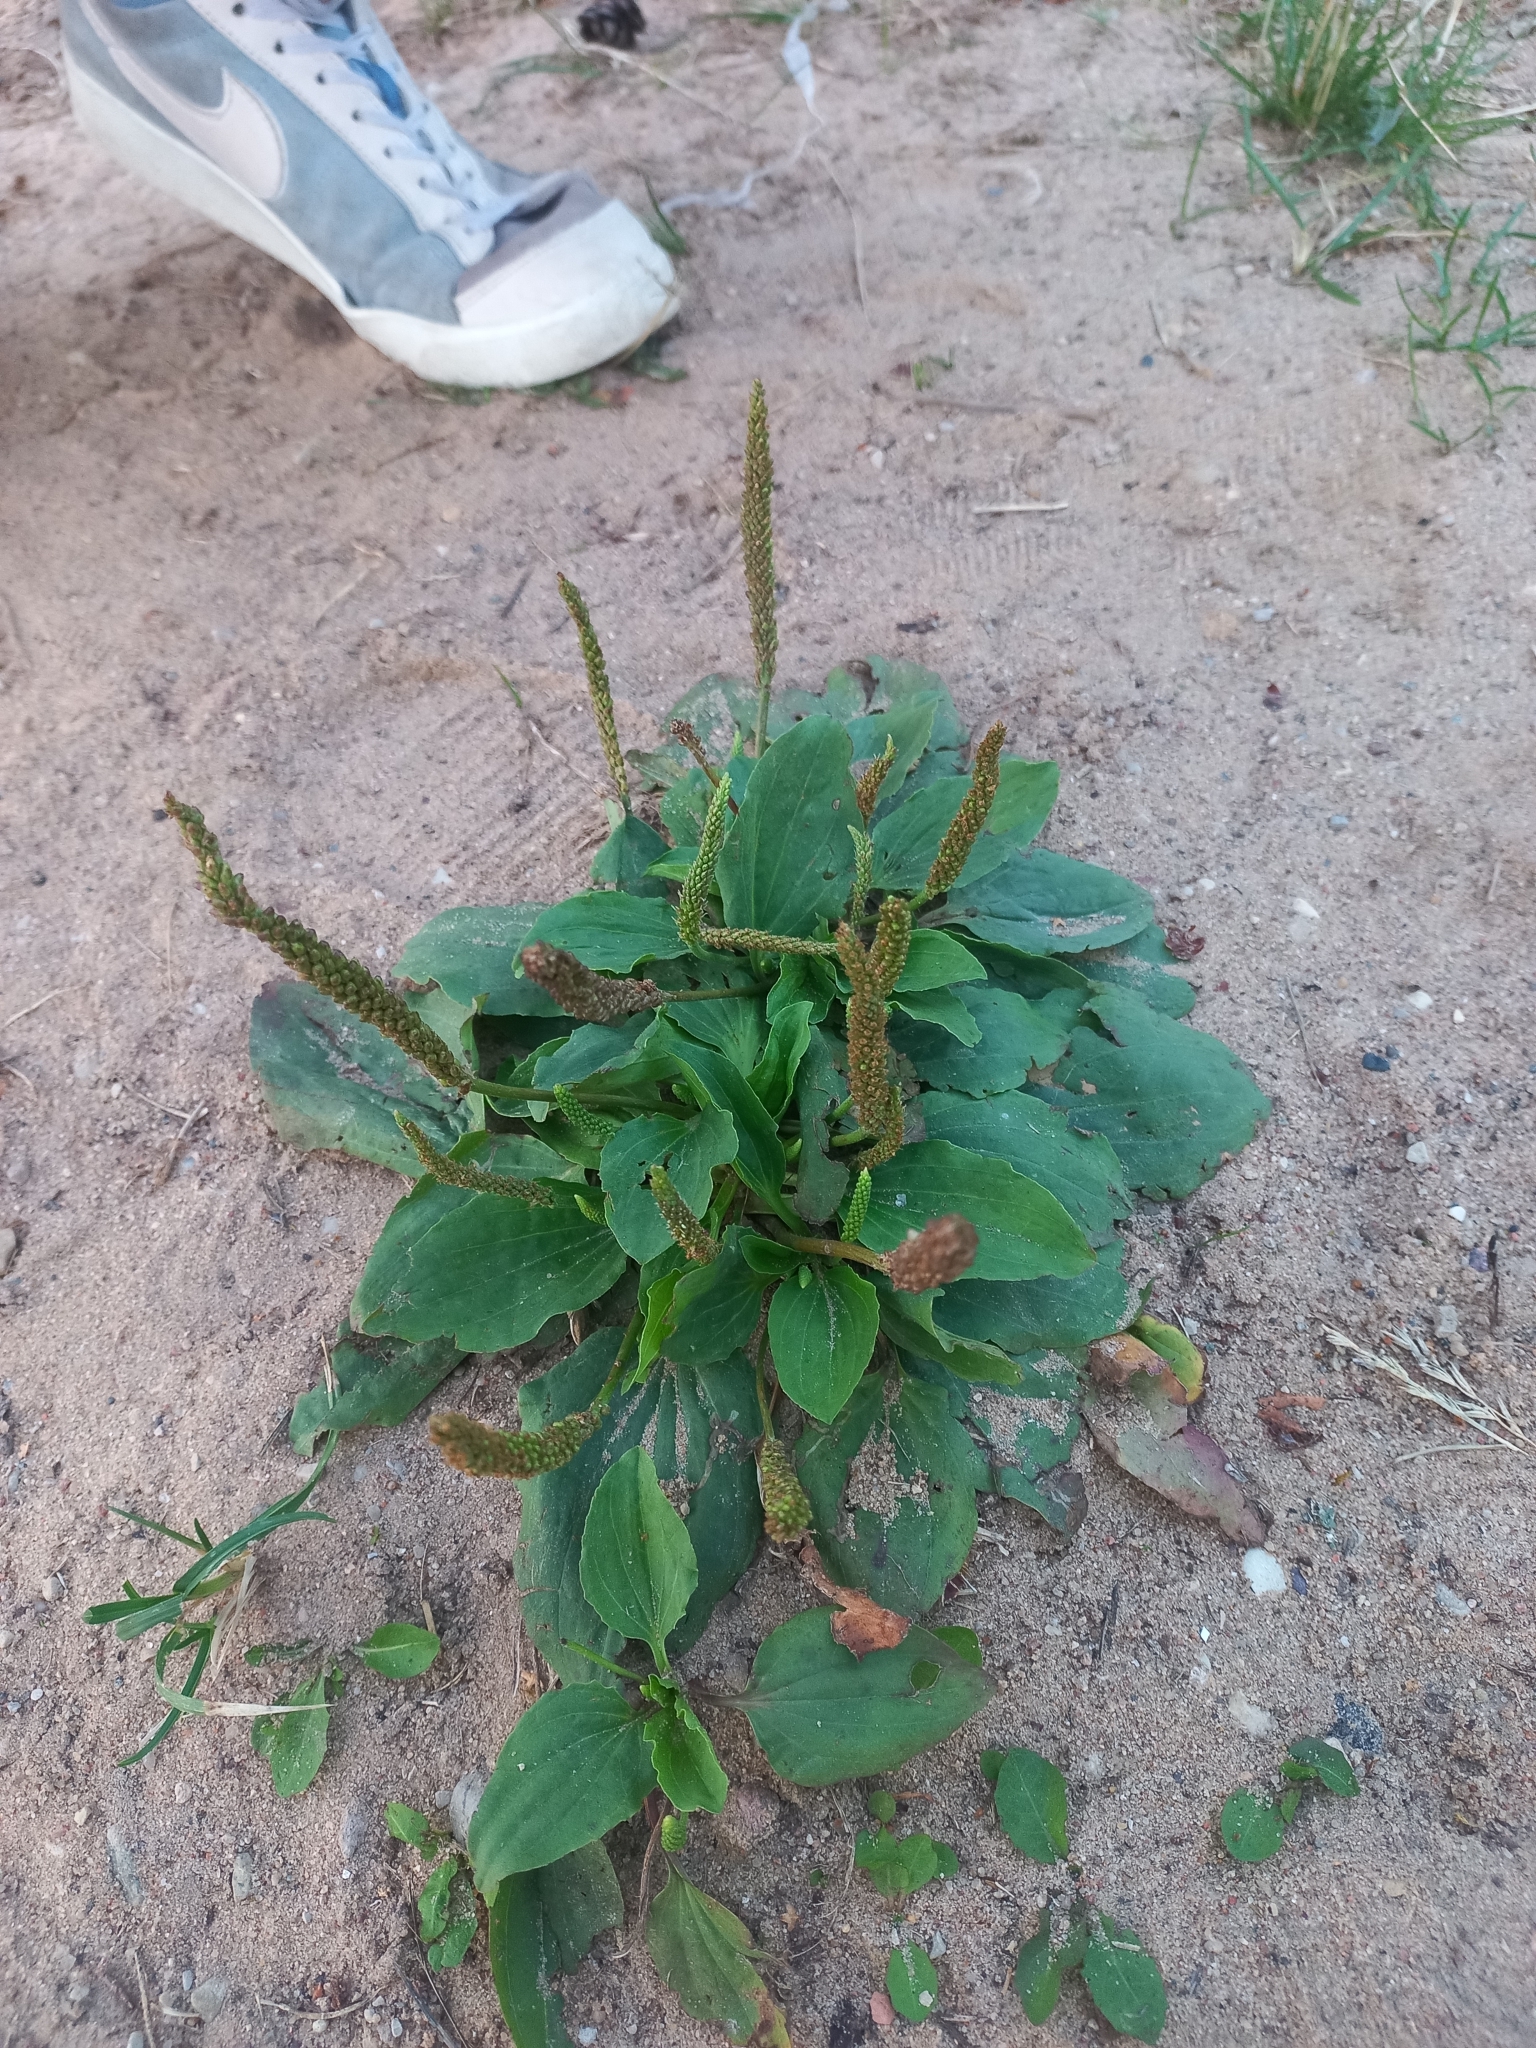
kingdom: Plantae
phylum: Tracheophyta
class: Magnoliopsida
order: Lamiales
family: Plantaginaceae
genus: Plantago
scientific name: Plantago major
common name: Common plantain
